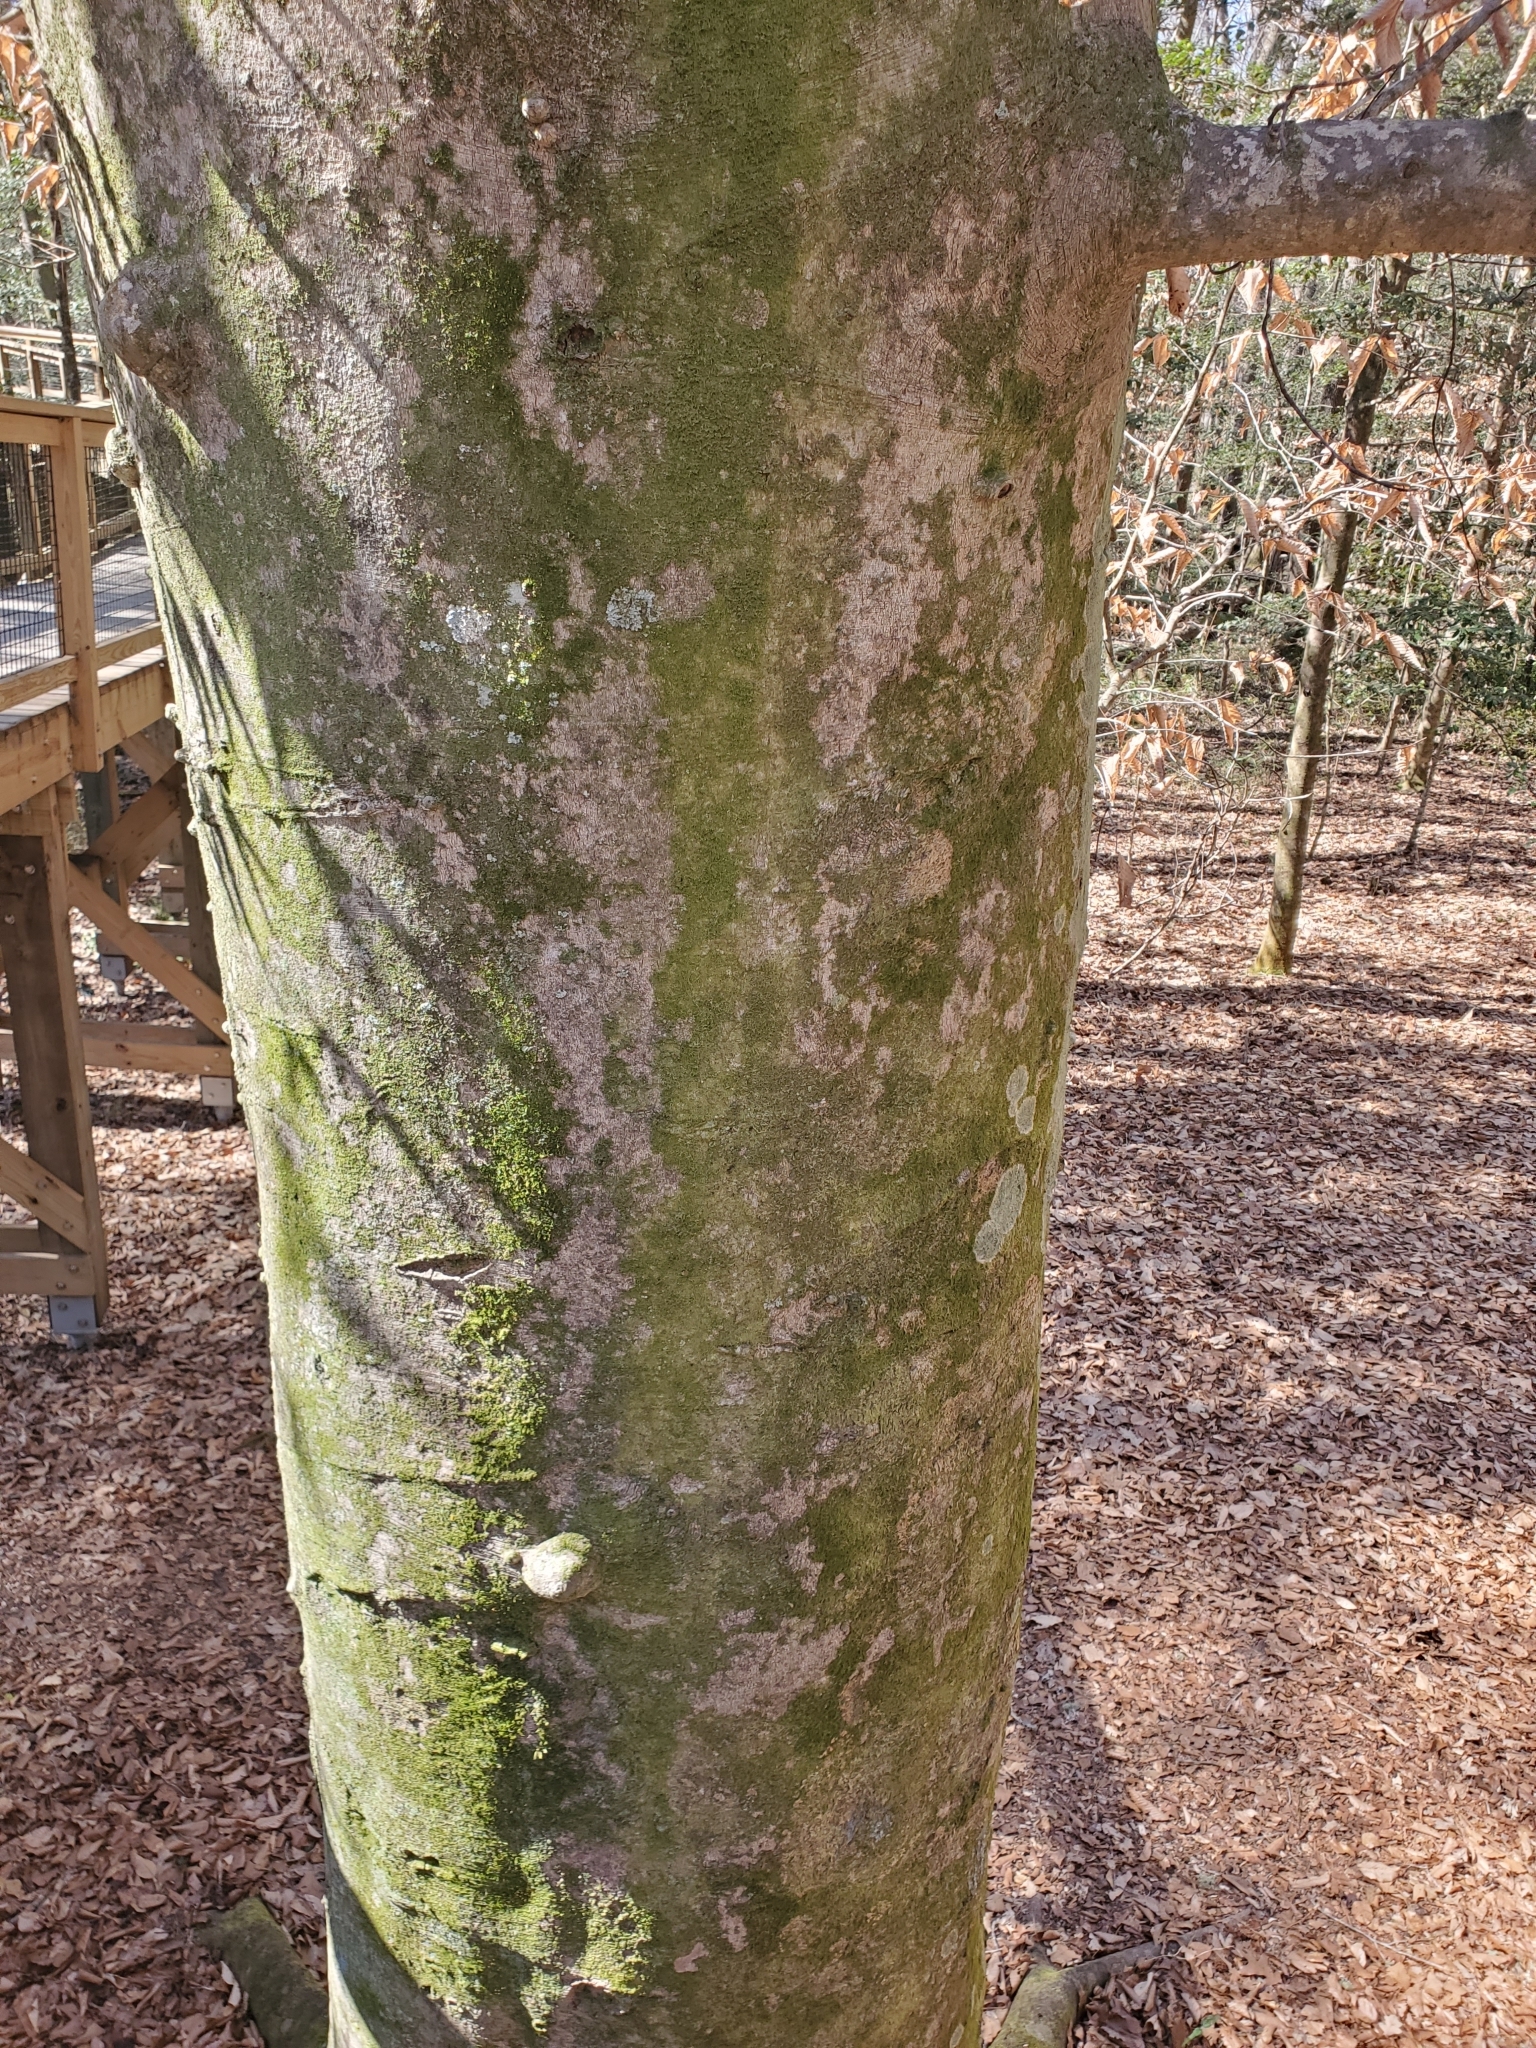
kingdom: Plantae
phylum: Tracheophyta
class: Magnoliopsida
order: Fagales
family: Fagaceae
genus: Fagus
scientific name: Fagus grandifolia
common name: American beech
